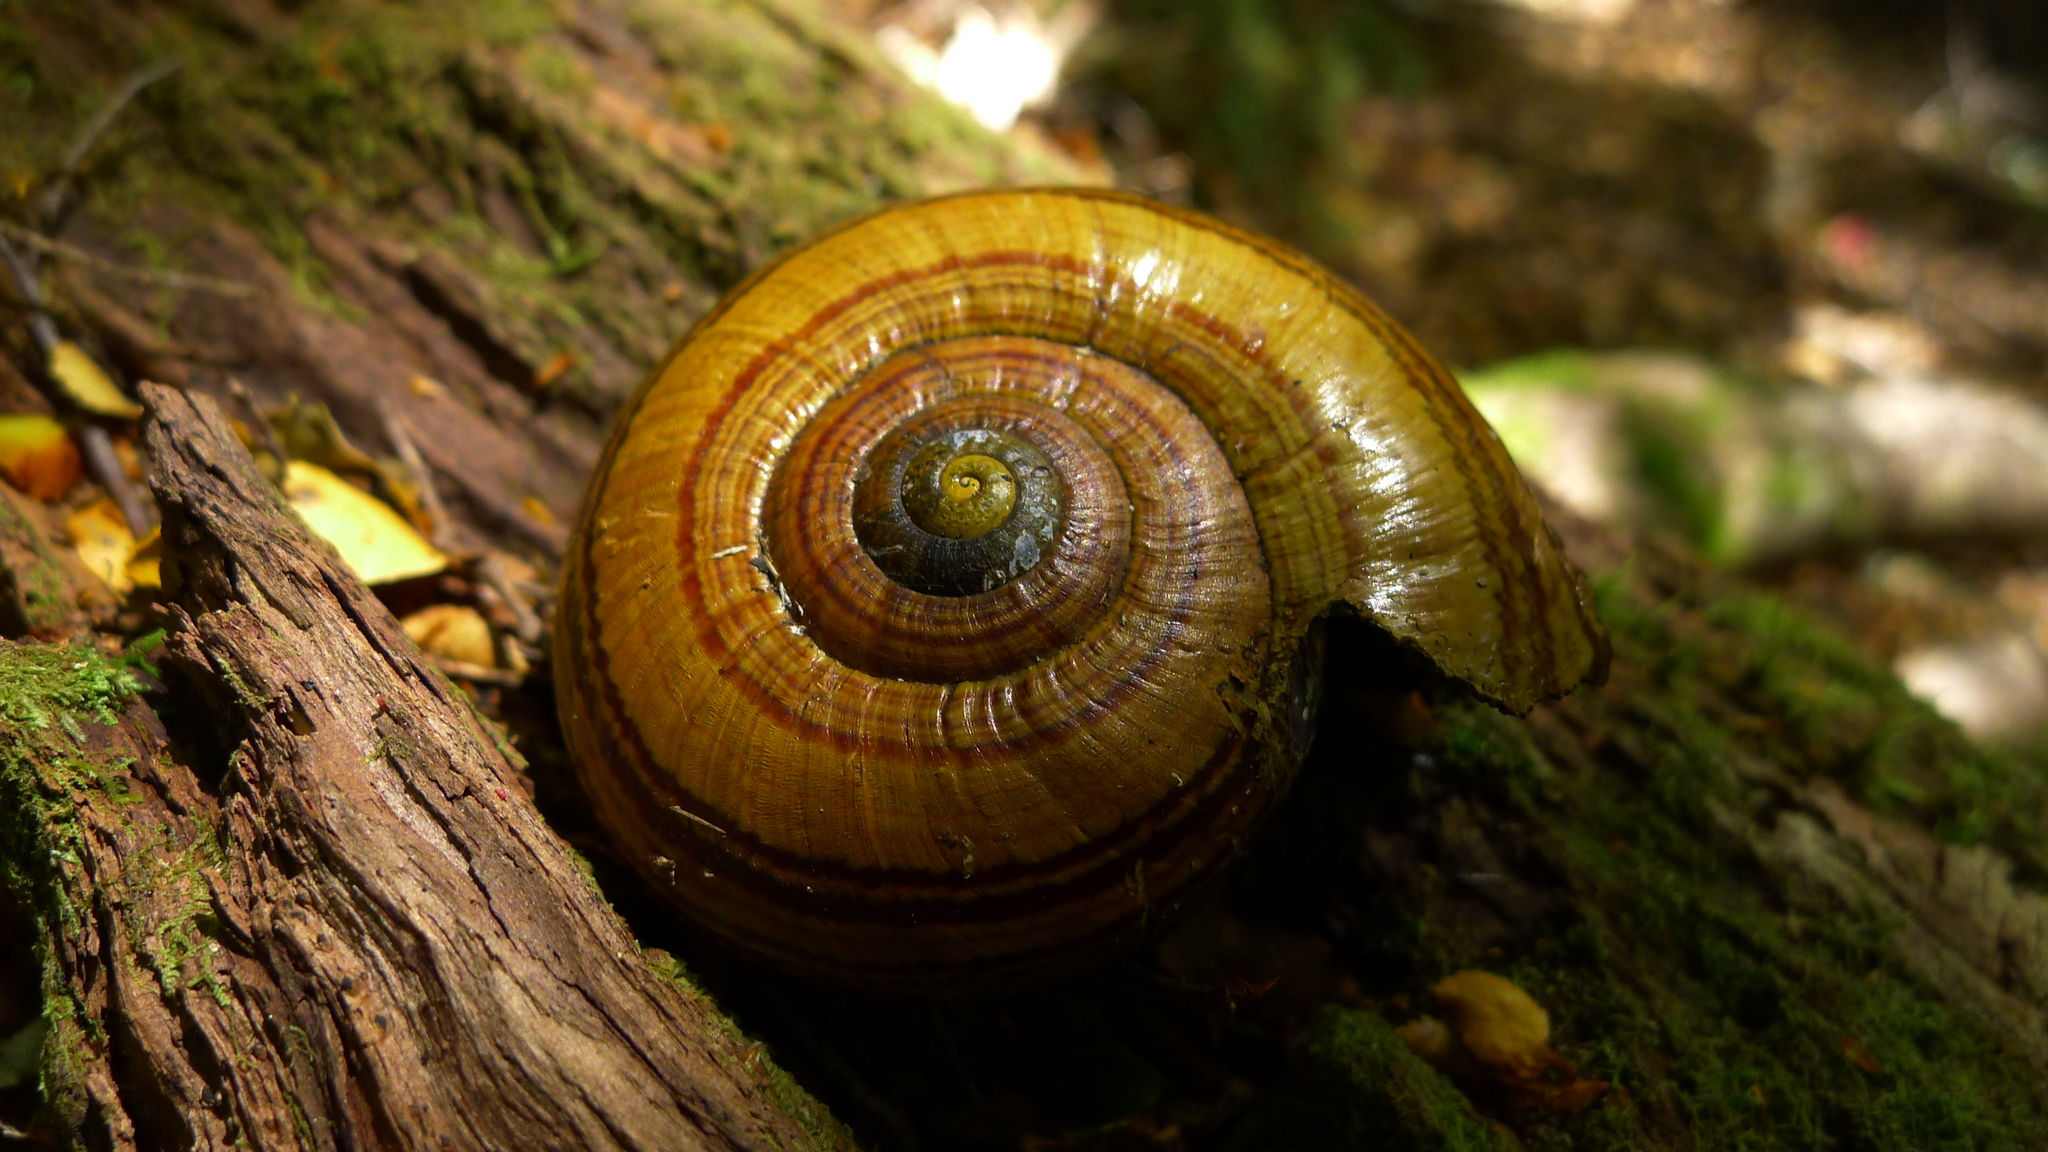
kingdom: Animalia
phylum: Mollusca
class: Gastropoda
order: Stylommatophora
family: Rhytididae
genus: Powelliphanta
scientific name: Powelliphanta hochstetteri
